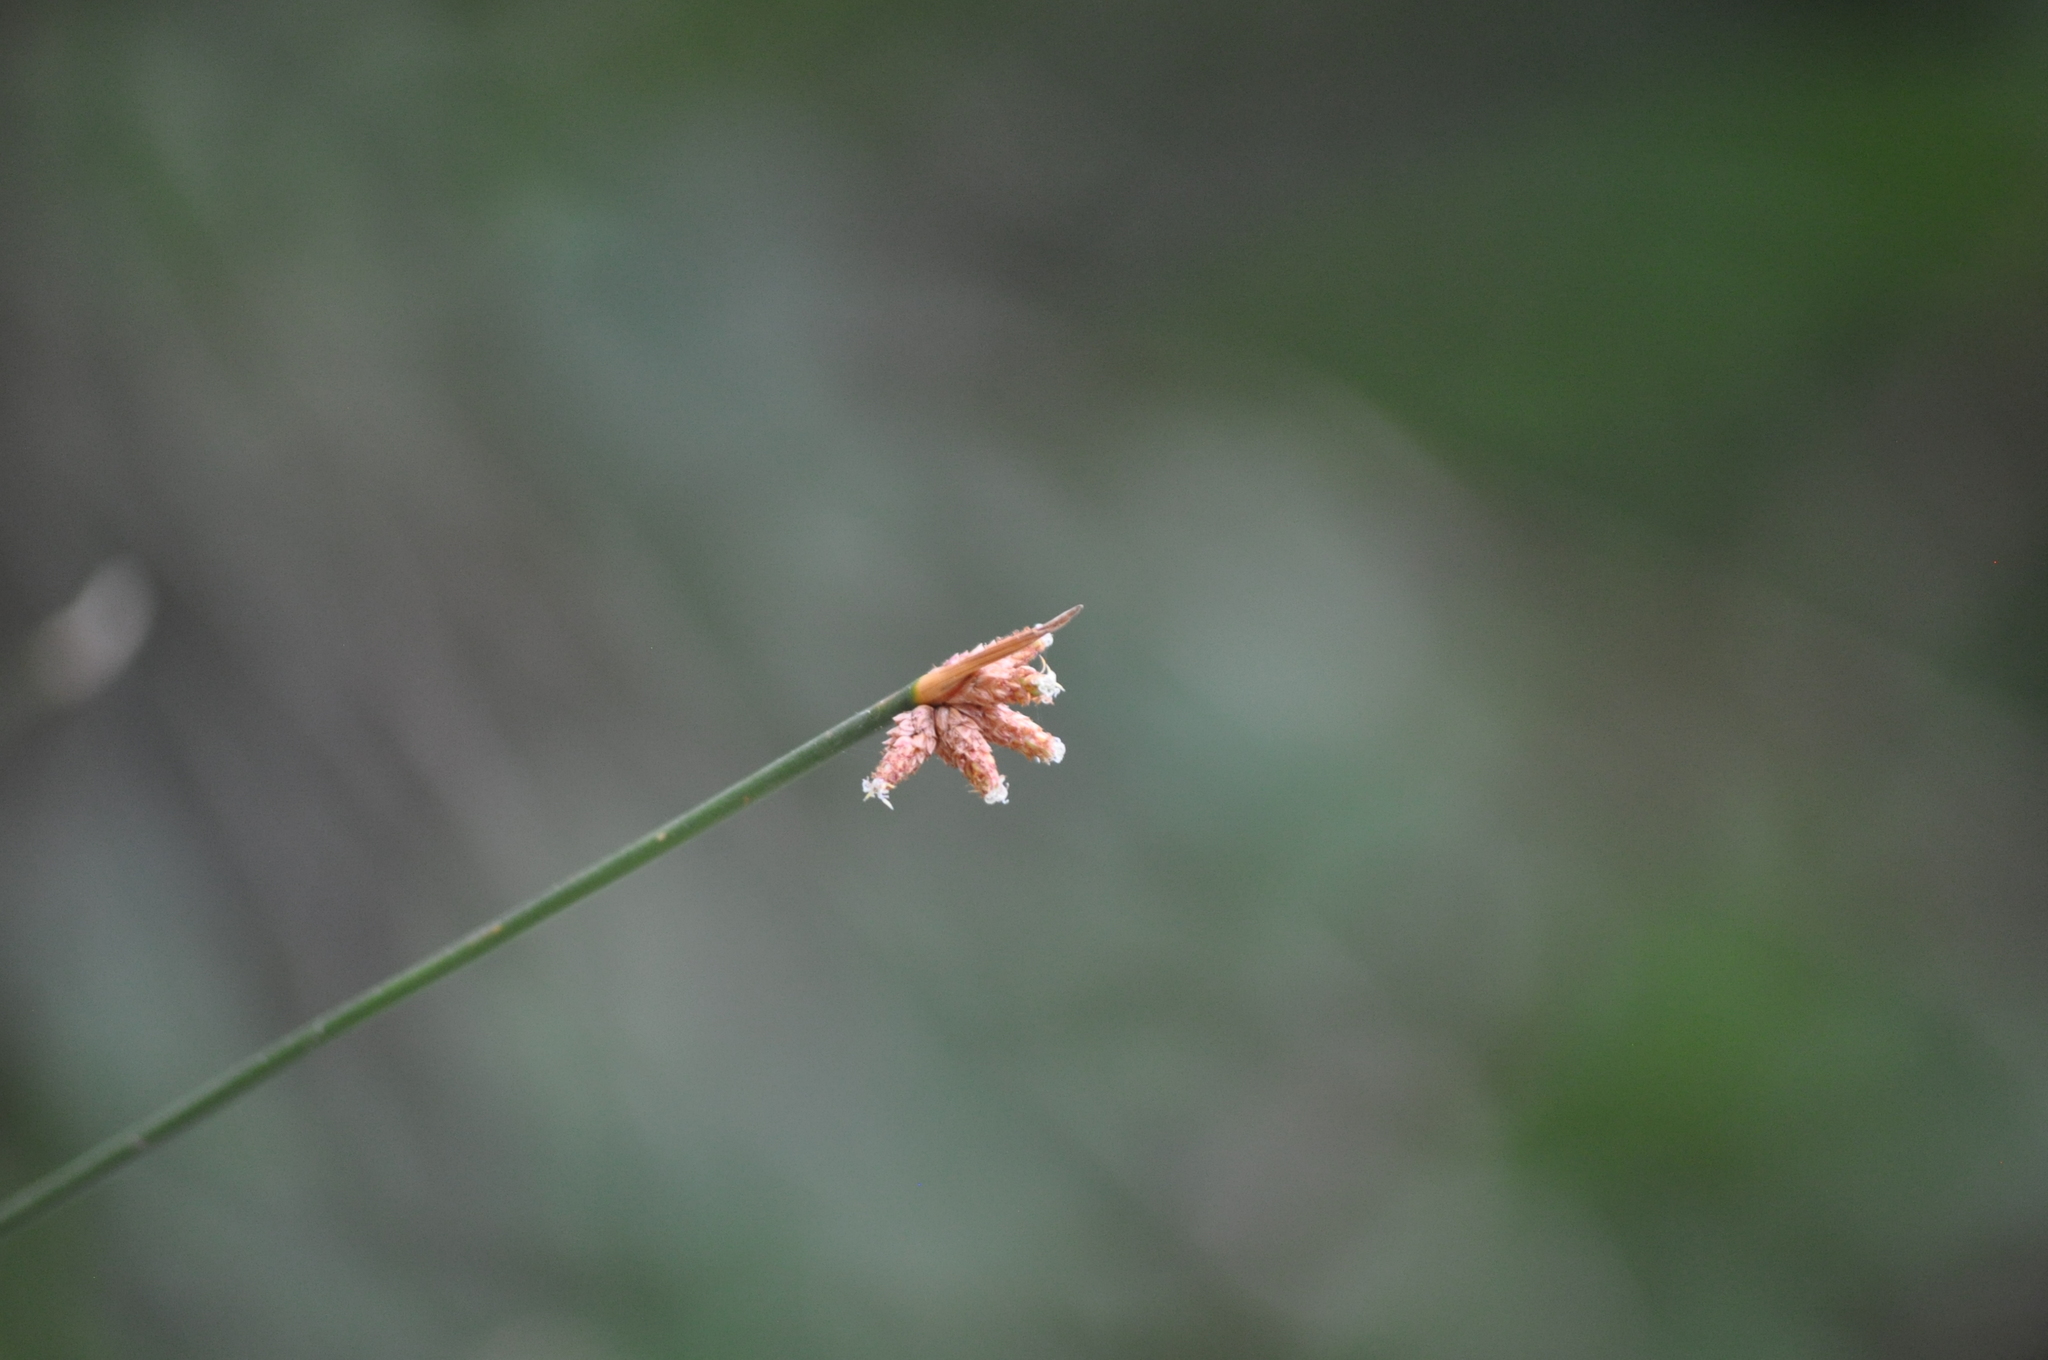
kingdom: Plantae
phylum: Tracheophyta
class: Liliopsida
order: Poales
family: Cyperaceae
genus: Ficinia
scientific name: Ficinia nodosa
